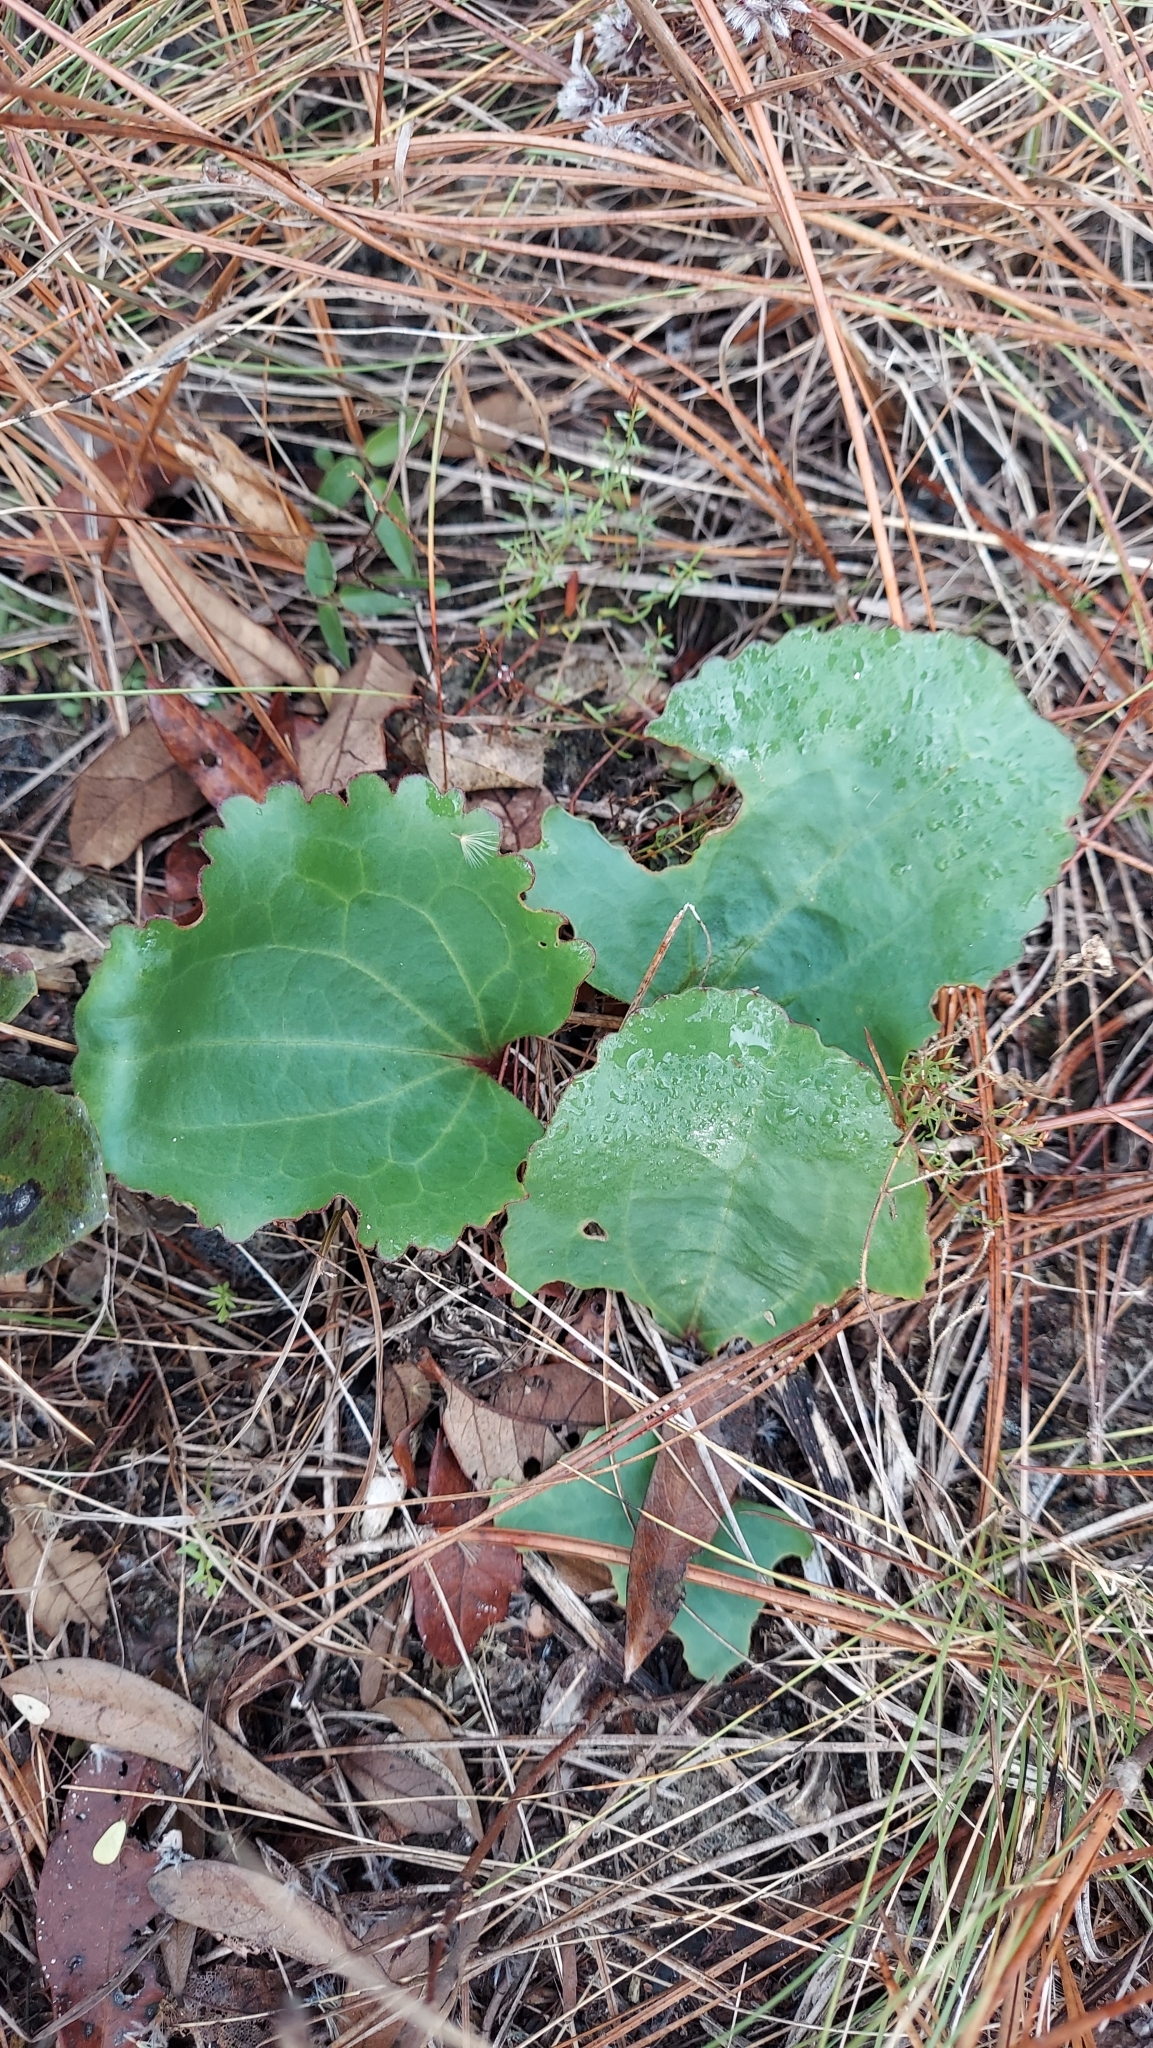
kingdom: Plantae
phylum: Tracheophyta
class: Magnoliopsida
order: Asterales
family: Asteraceae
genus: Arnoglossum
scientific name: Arnoglossum floridanum
